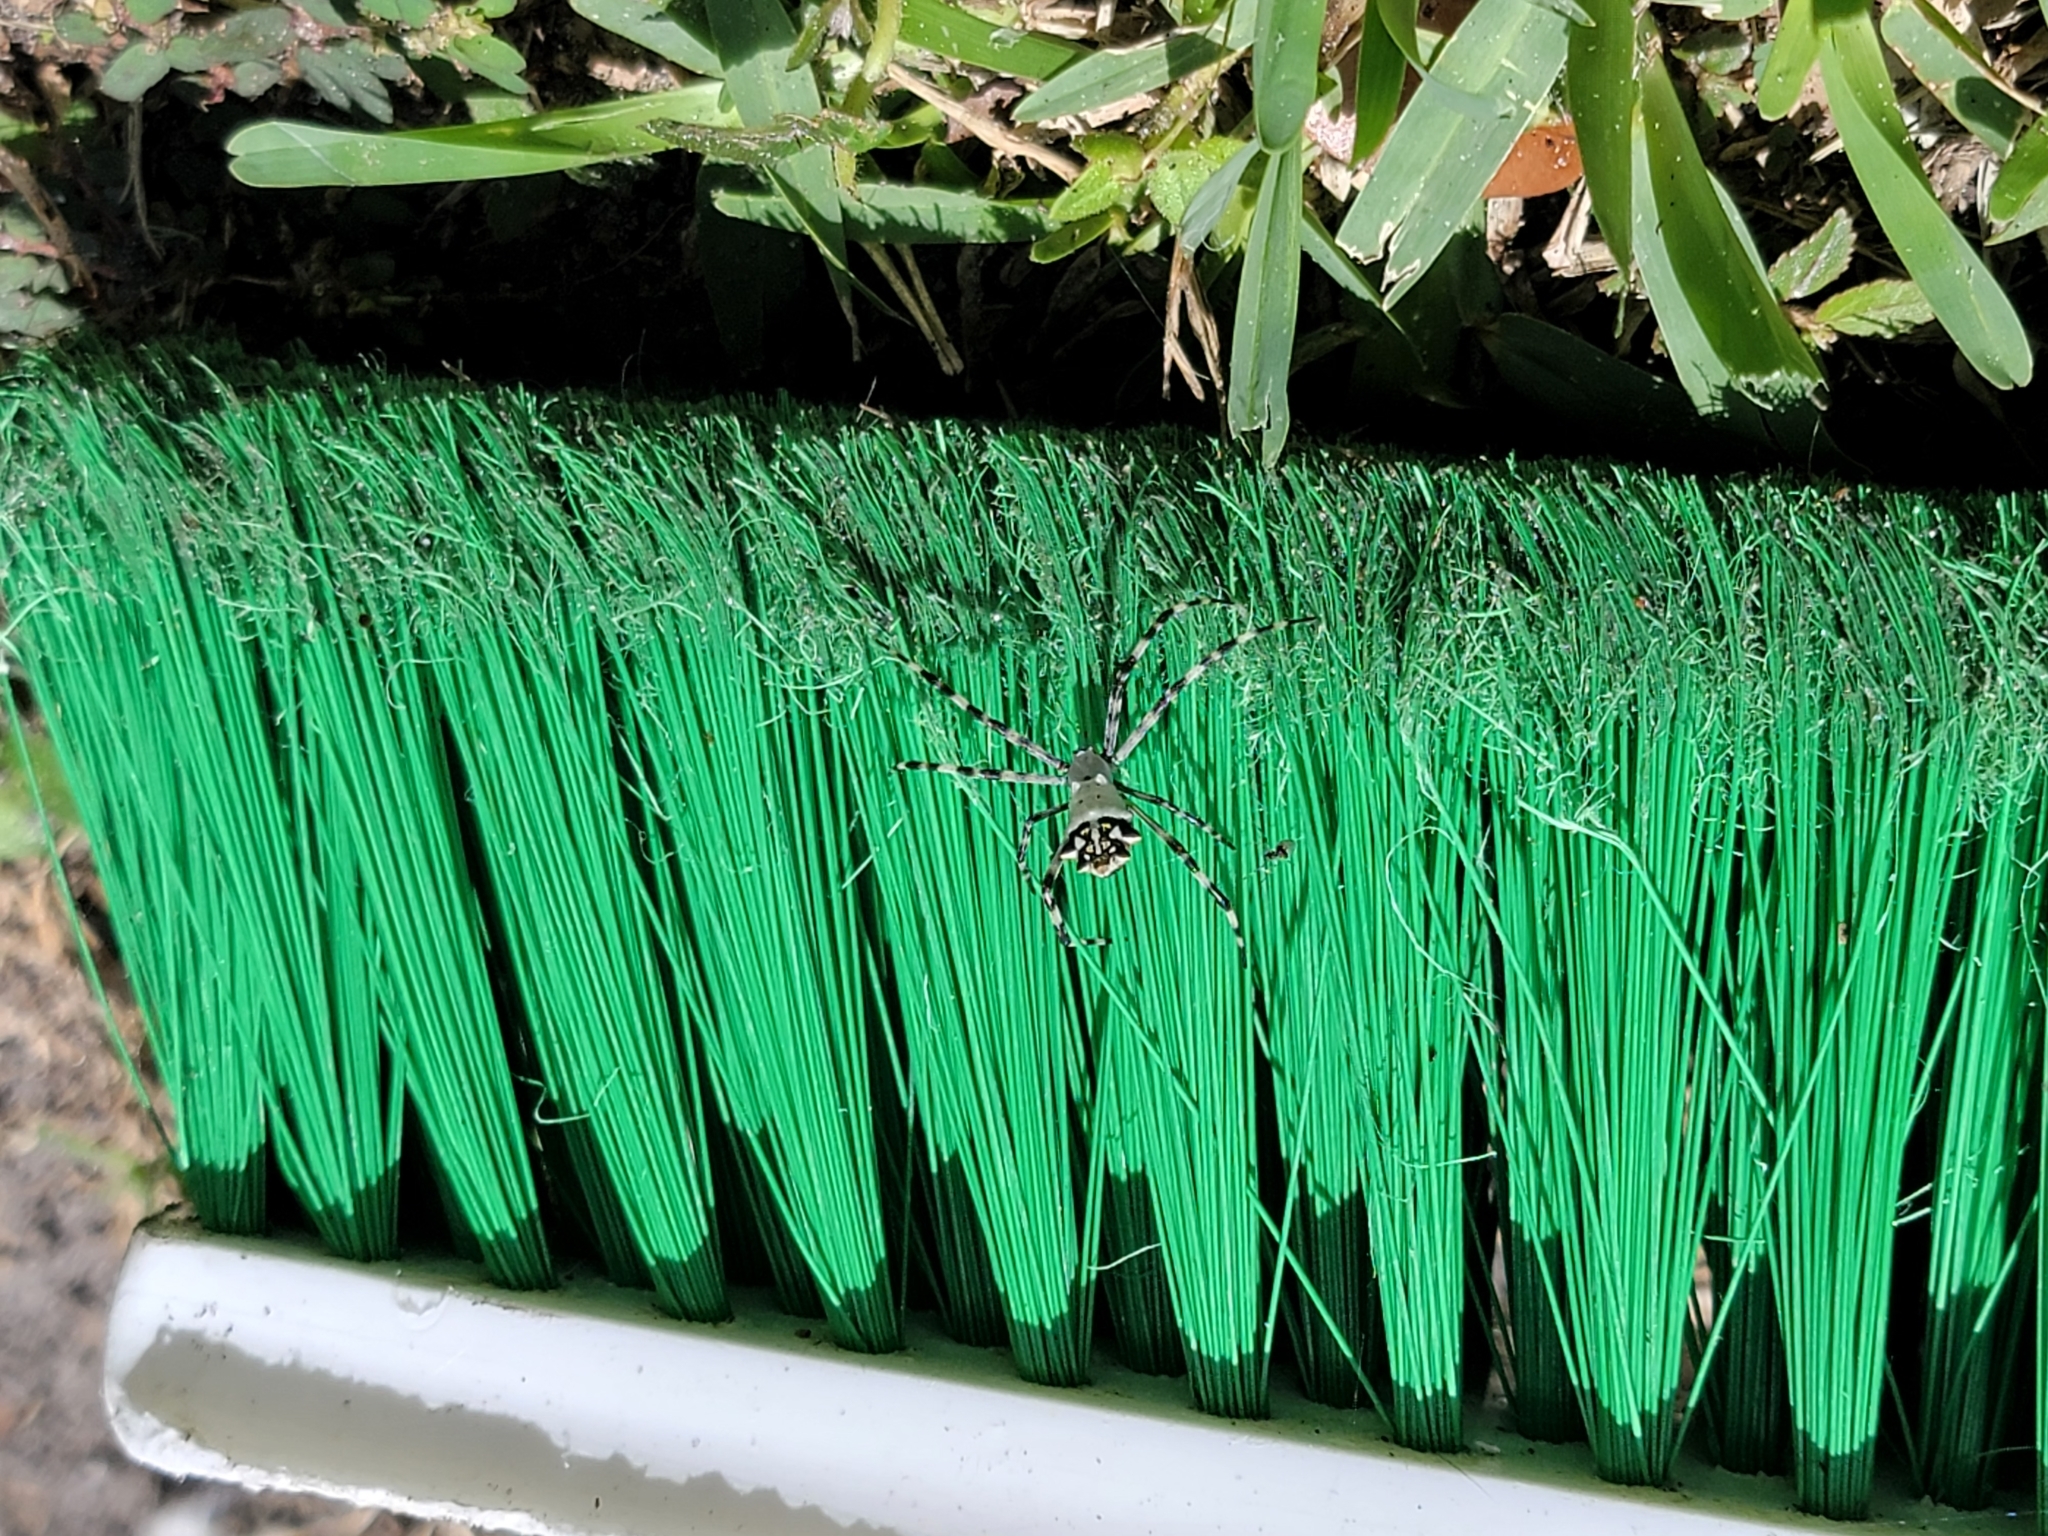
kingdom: Animalia
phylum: Arthropoda
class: Arachnida
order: Araneae
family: Araneidae
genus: Argiope
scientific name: Argiope argentata
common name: Orb weavers
